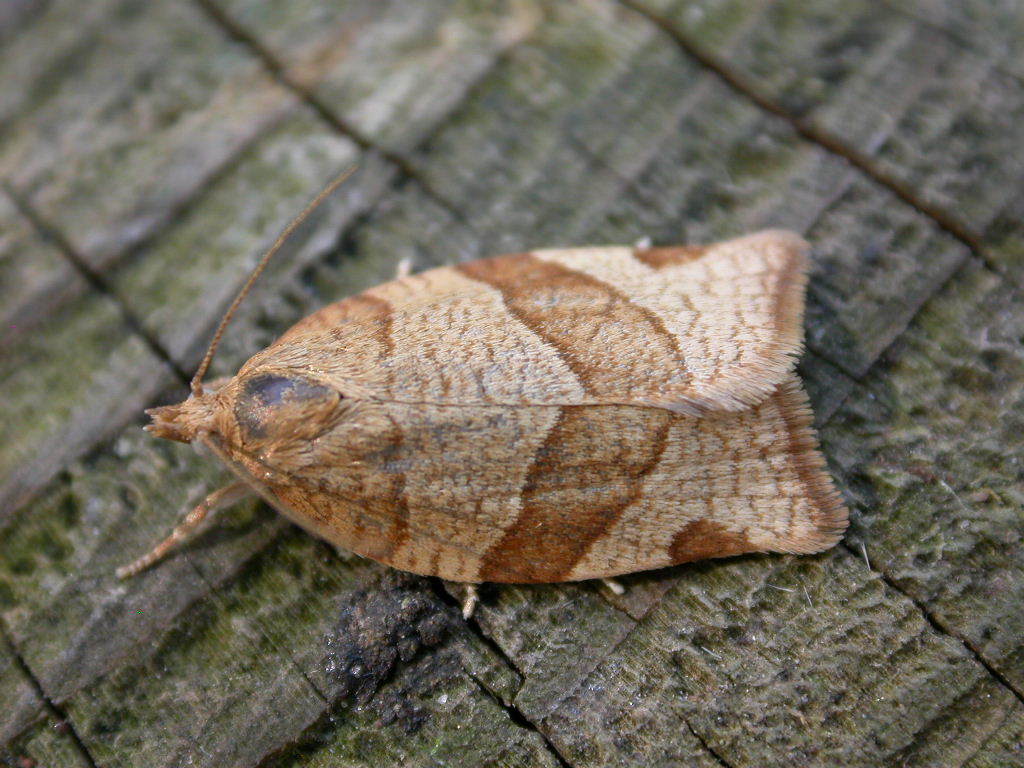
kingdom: Animalia
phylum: Arthropoda
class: Insecta
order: Lepidoptera
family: Tortricidae
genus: Pandemis
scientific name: Pandemis cerasana
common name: Barred fruit-tree tortrix
